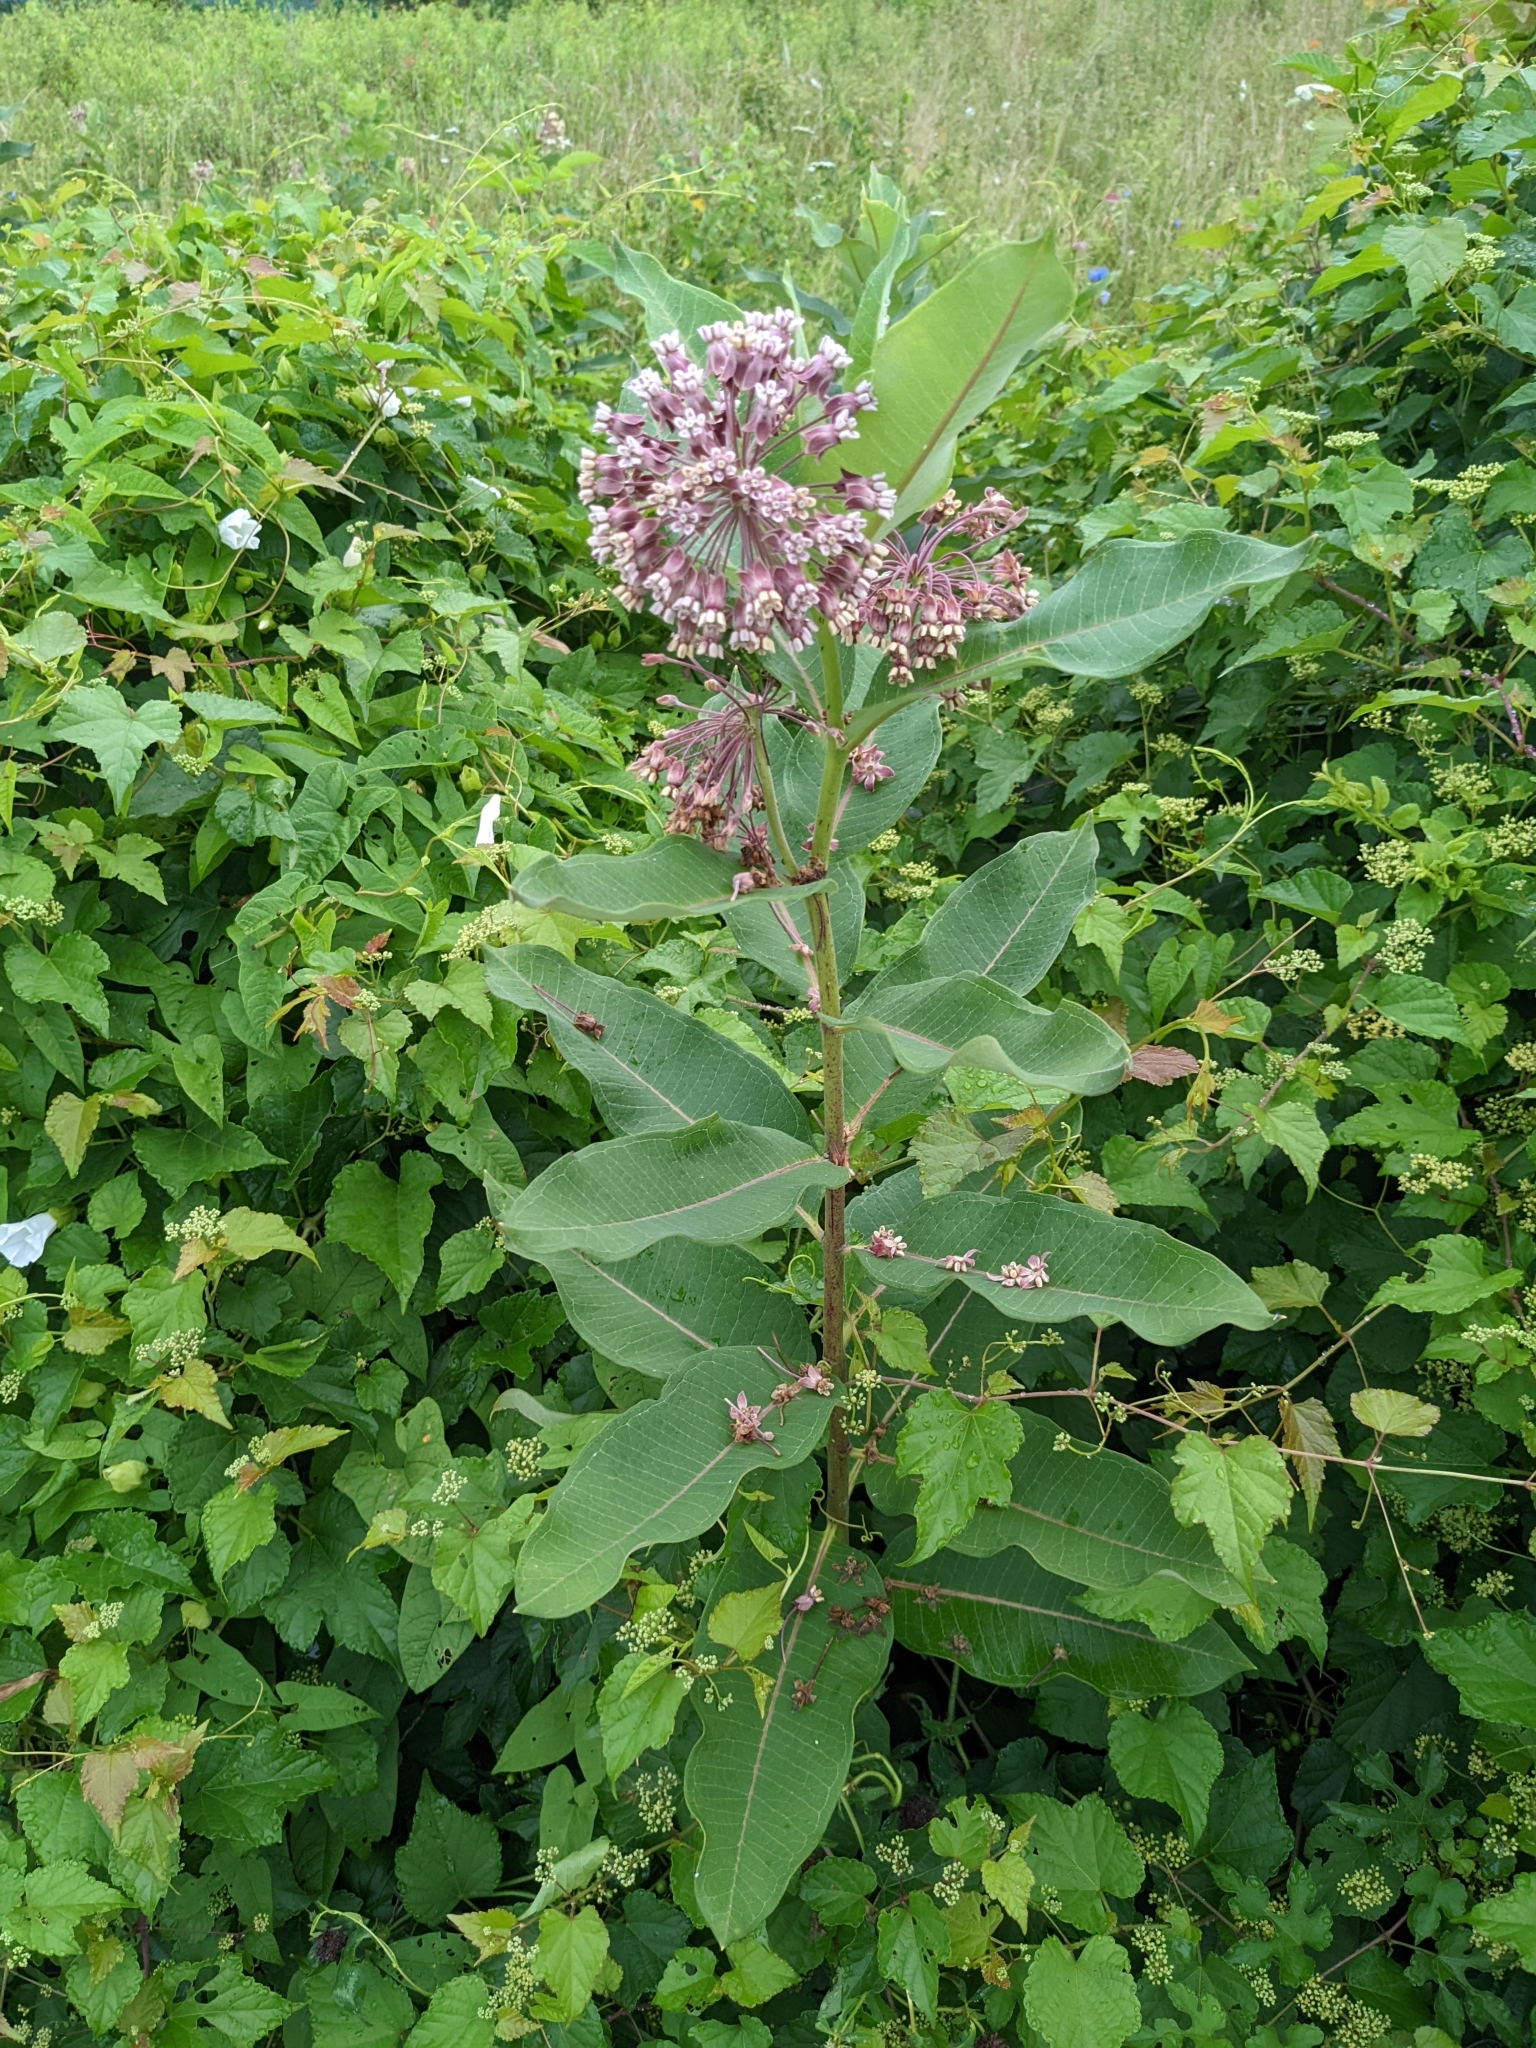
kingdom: Plantae
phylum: Tracheophyta
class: Magnoliopsida
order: Gentianales
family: Apocynaceae
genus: Asclepias
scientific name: Asclepias syriaca
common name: Common milkweed
